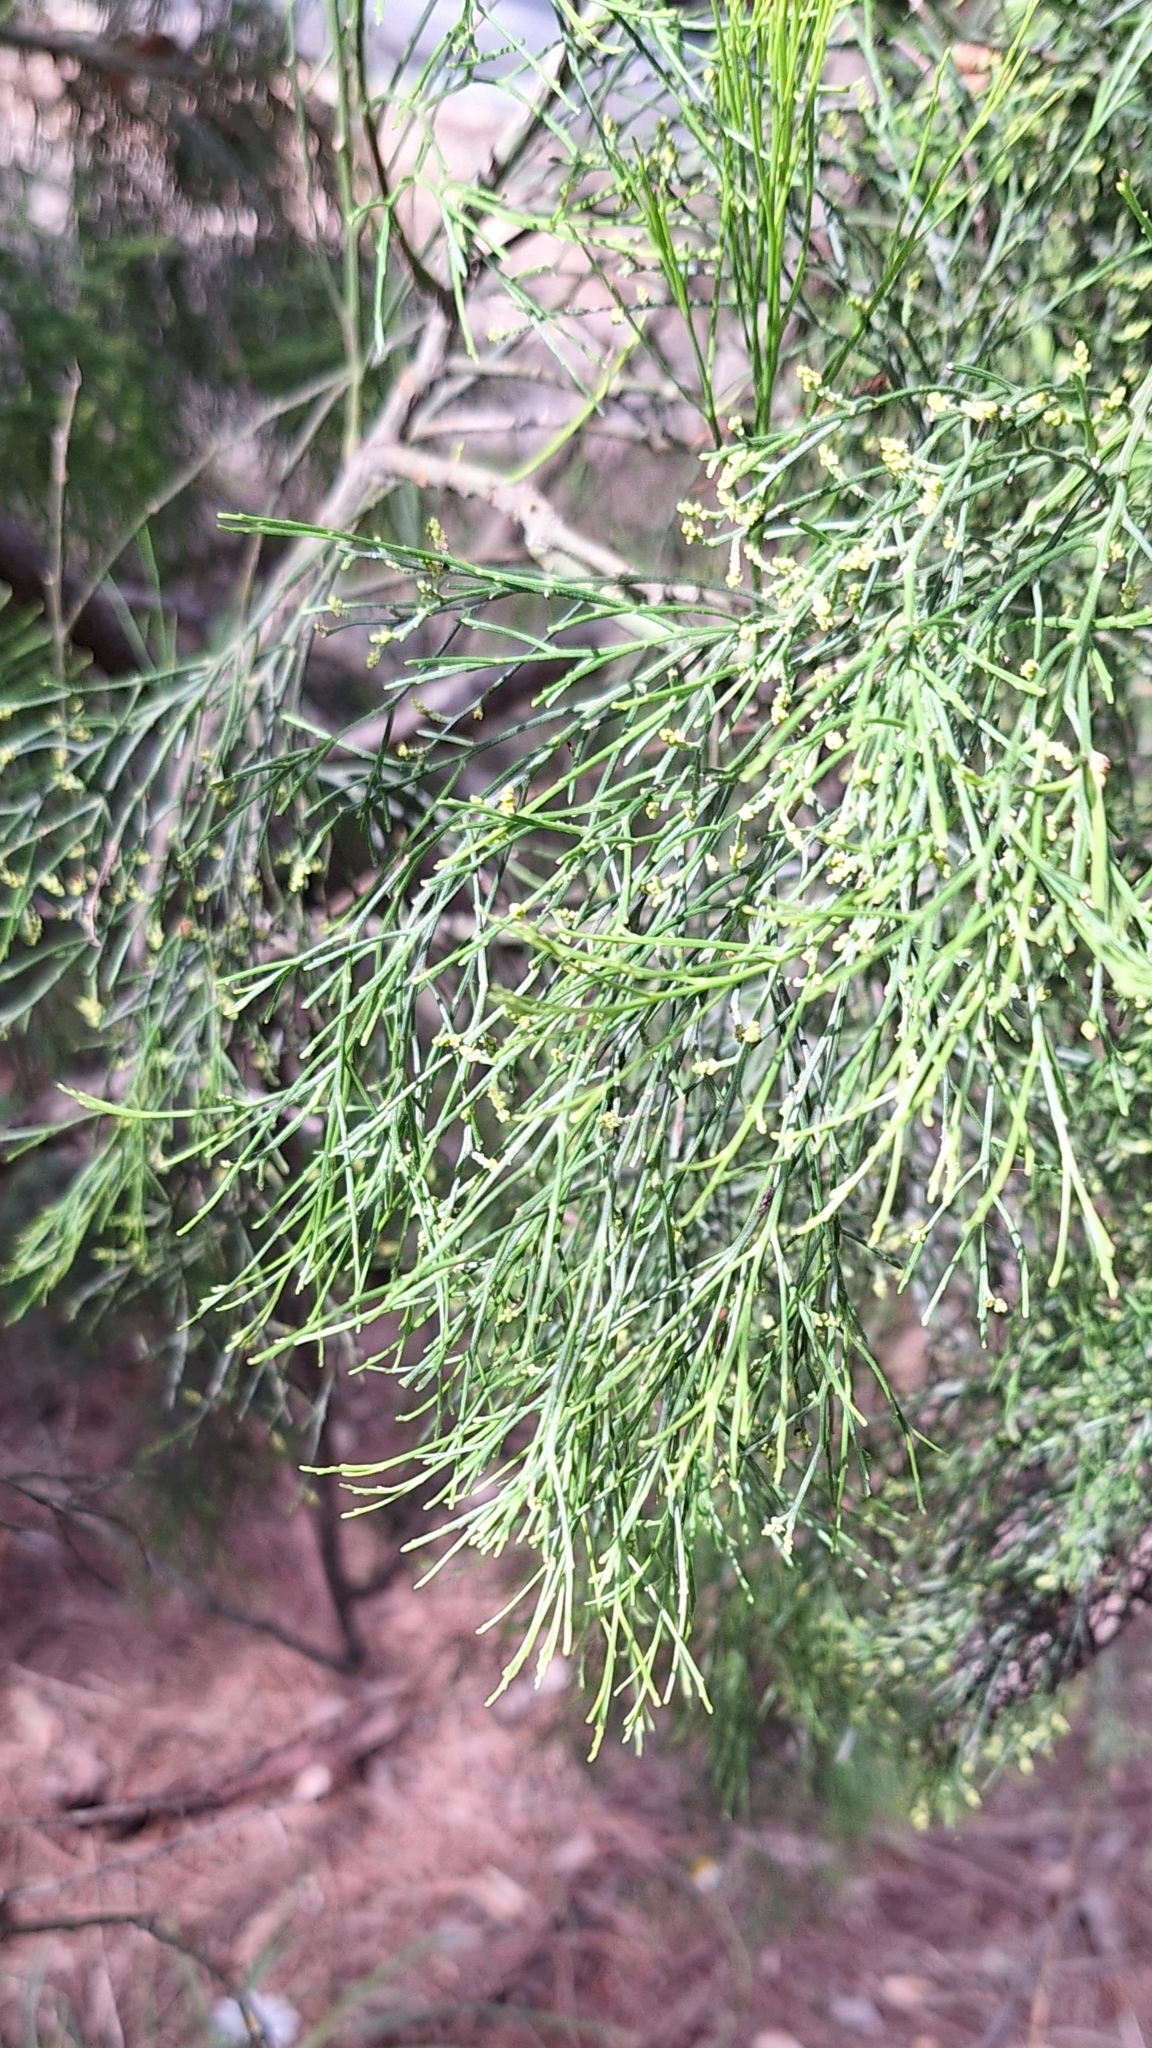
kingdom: Plantae
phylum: Tracheophyta
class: Magnoliopsida
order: Santalales
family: Santalaceae
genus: Exocarpos
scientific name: Exocarpos cupressiformis
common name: Cherry ballart
